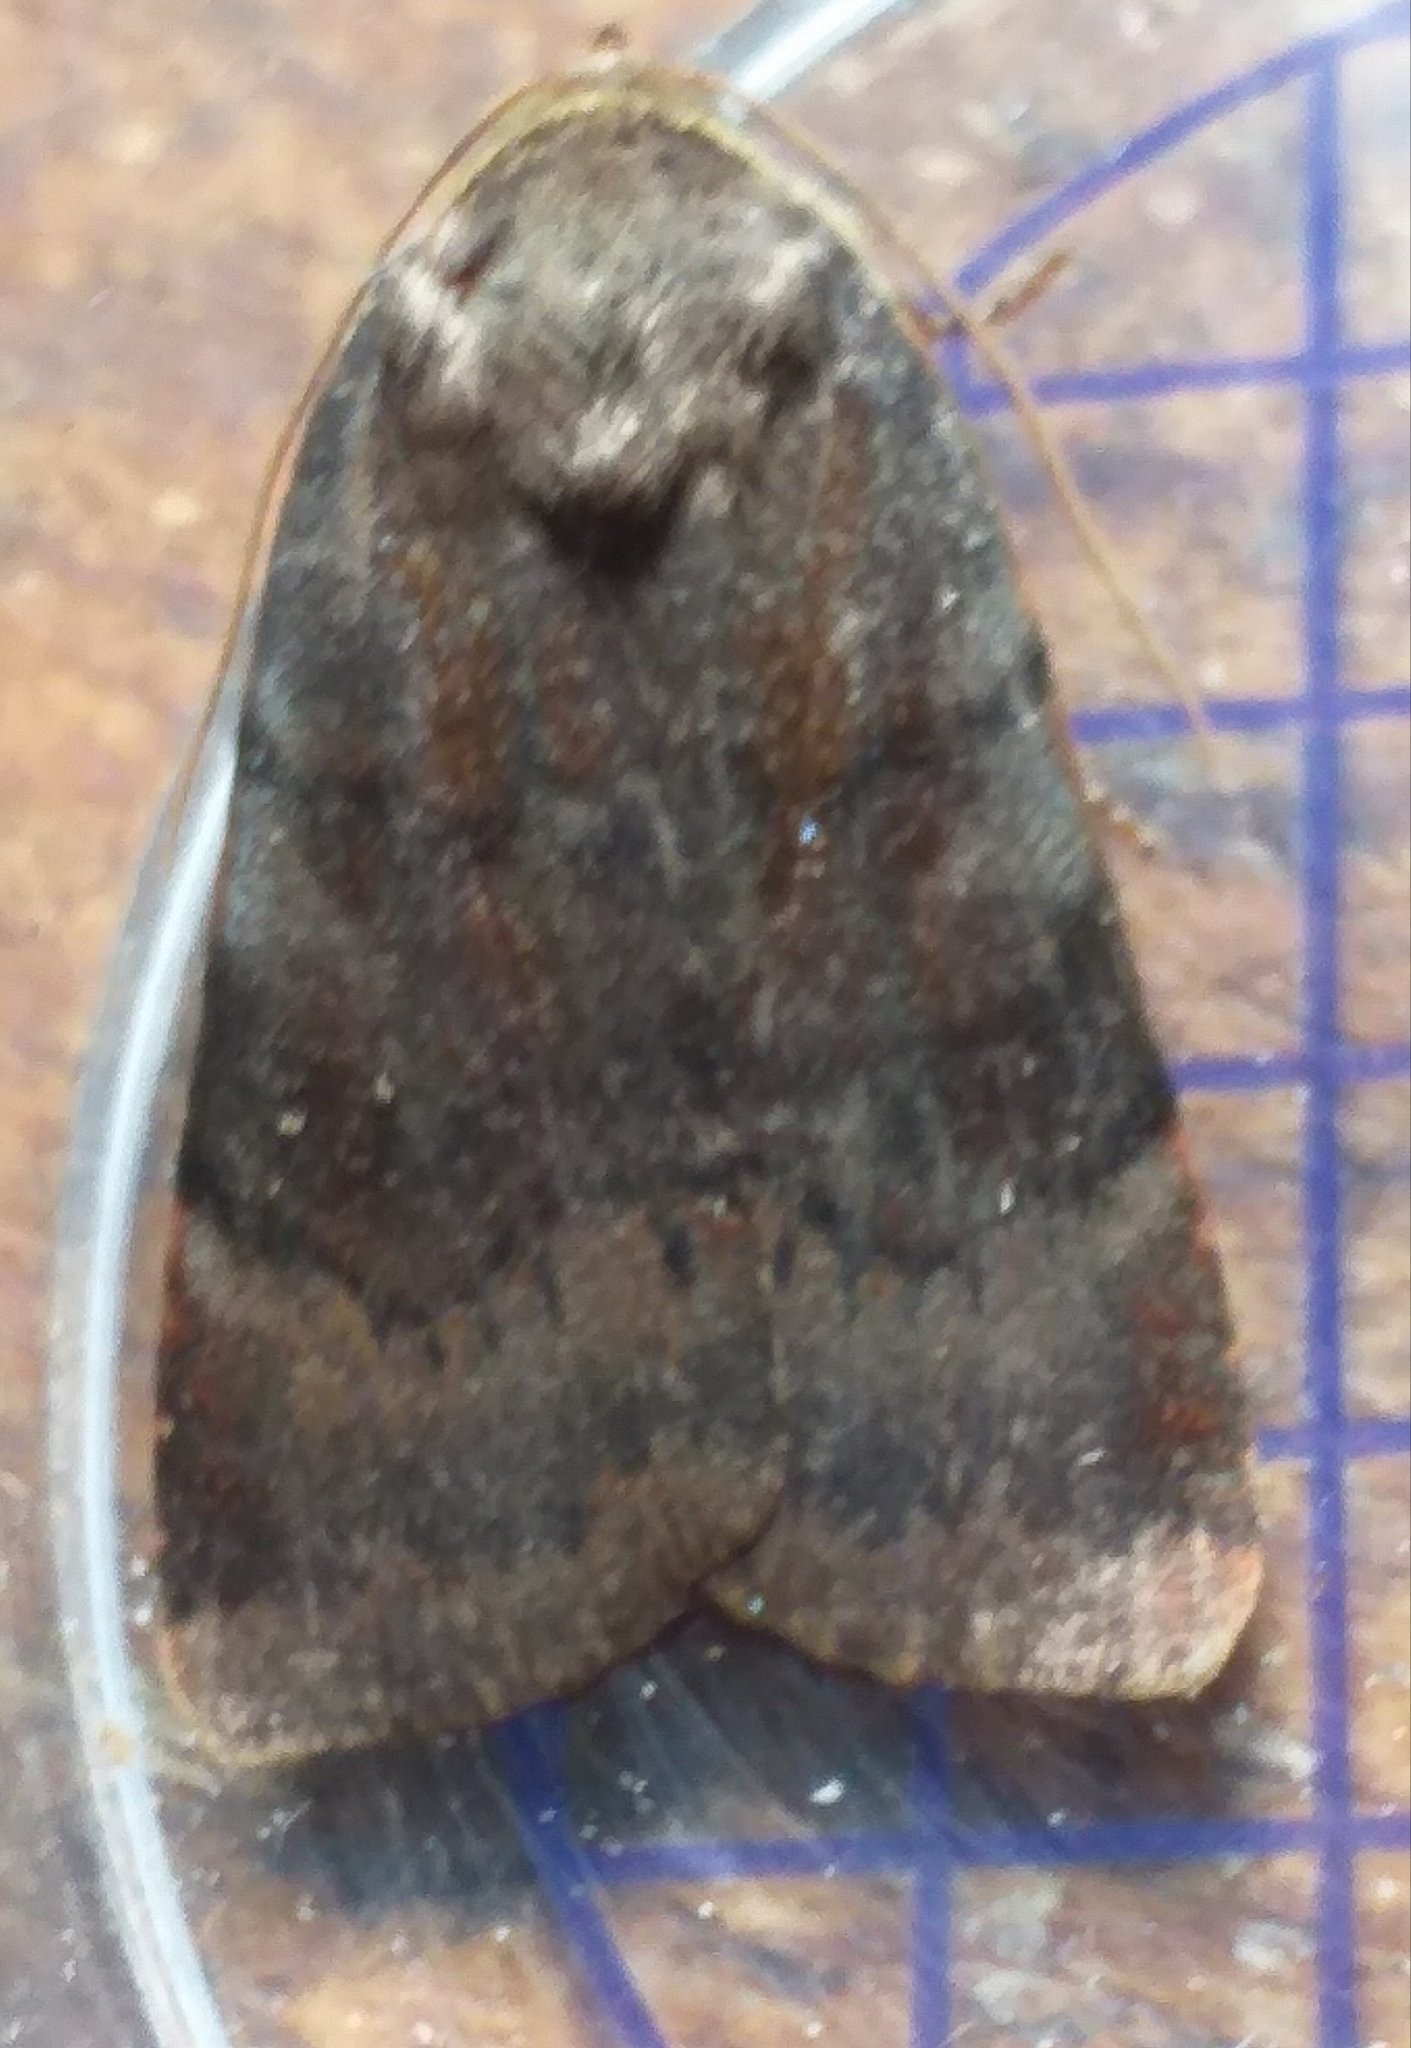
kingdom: Animalia
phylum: Arthropoda
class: Insecta
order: Lepidoptera
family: Noctuidae
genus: Noctua
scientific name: Noctua janthe
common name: Lesser broad-bordered yellow underwing
